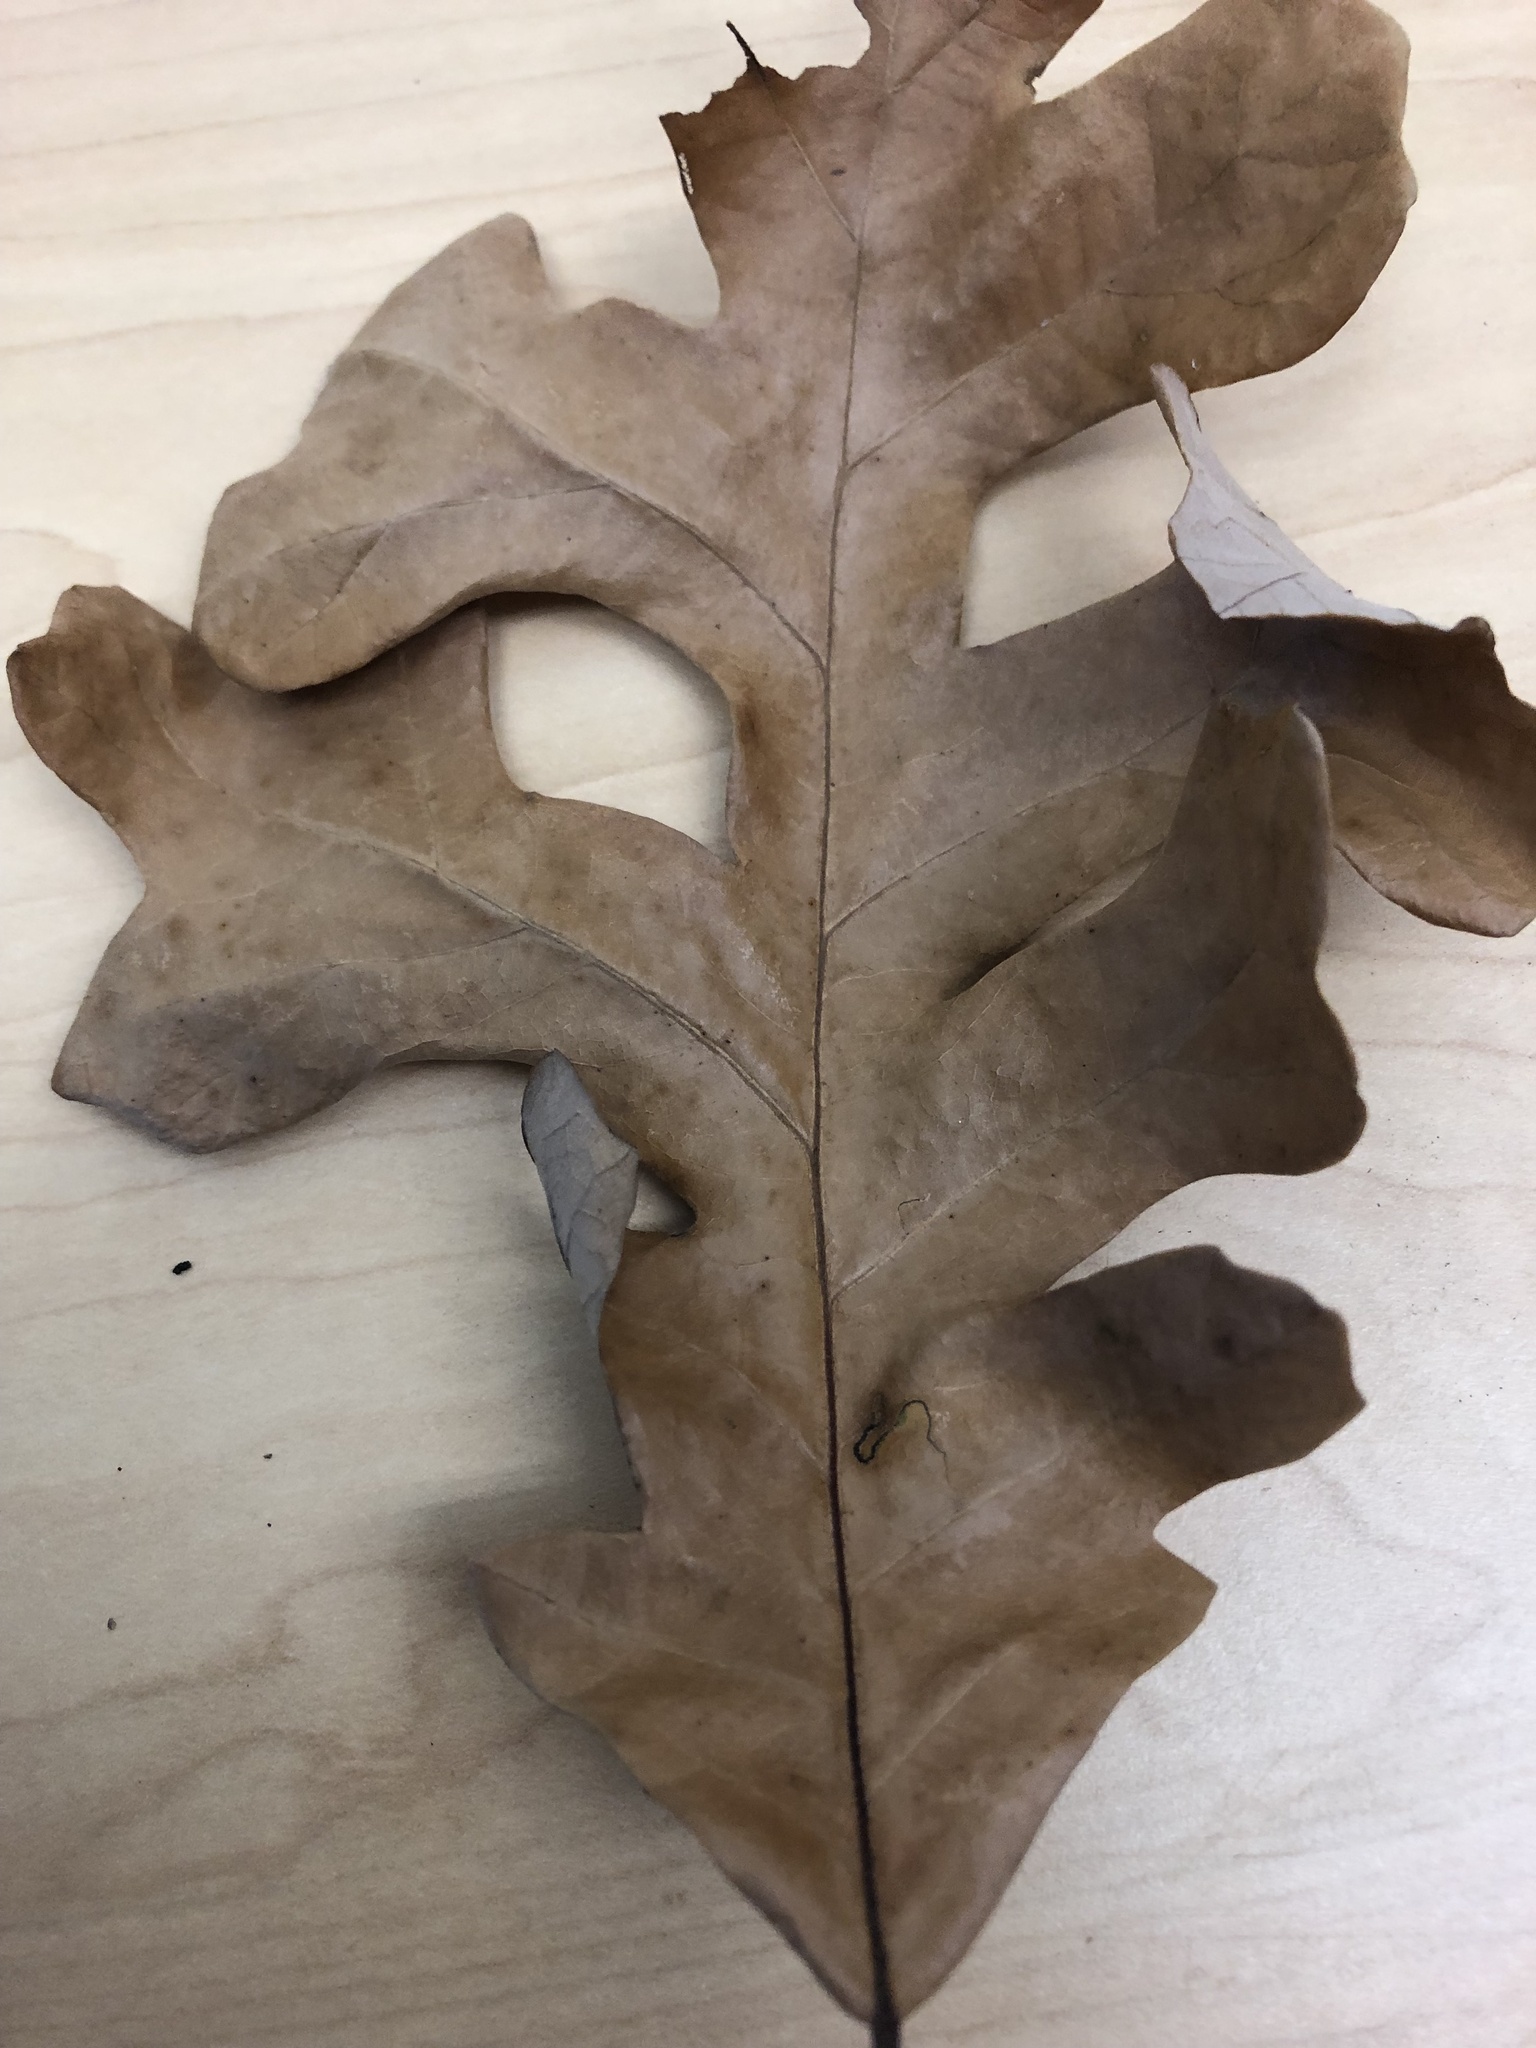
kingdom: Plantae
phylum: Tracheophyta
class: Magnoliopsida
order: Fagales
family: Fagaceae
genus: Quercus
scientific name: Quercus stellata
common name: Post oak
